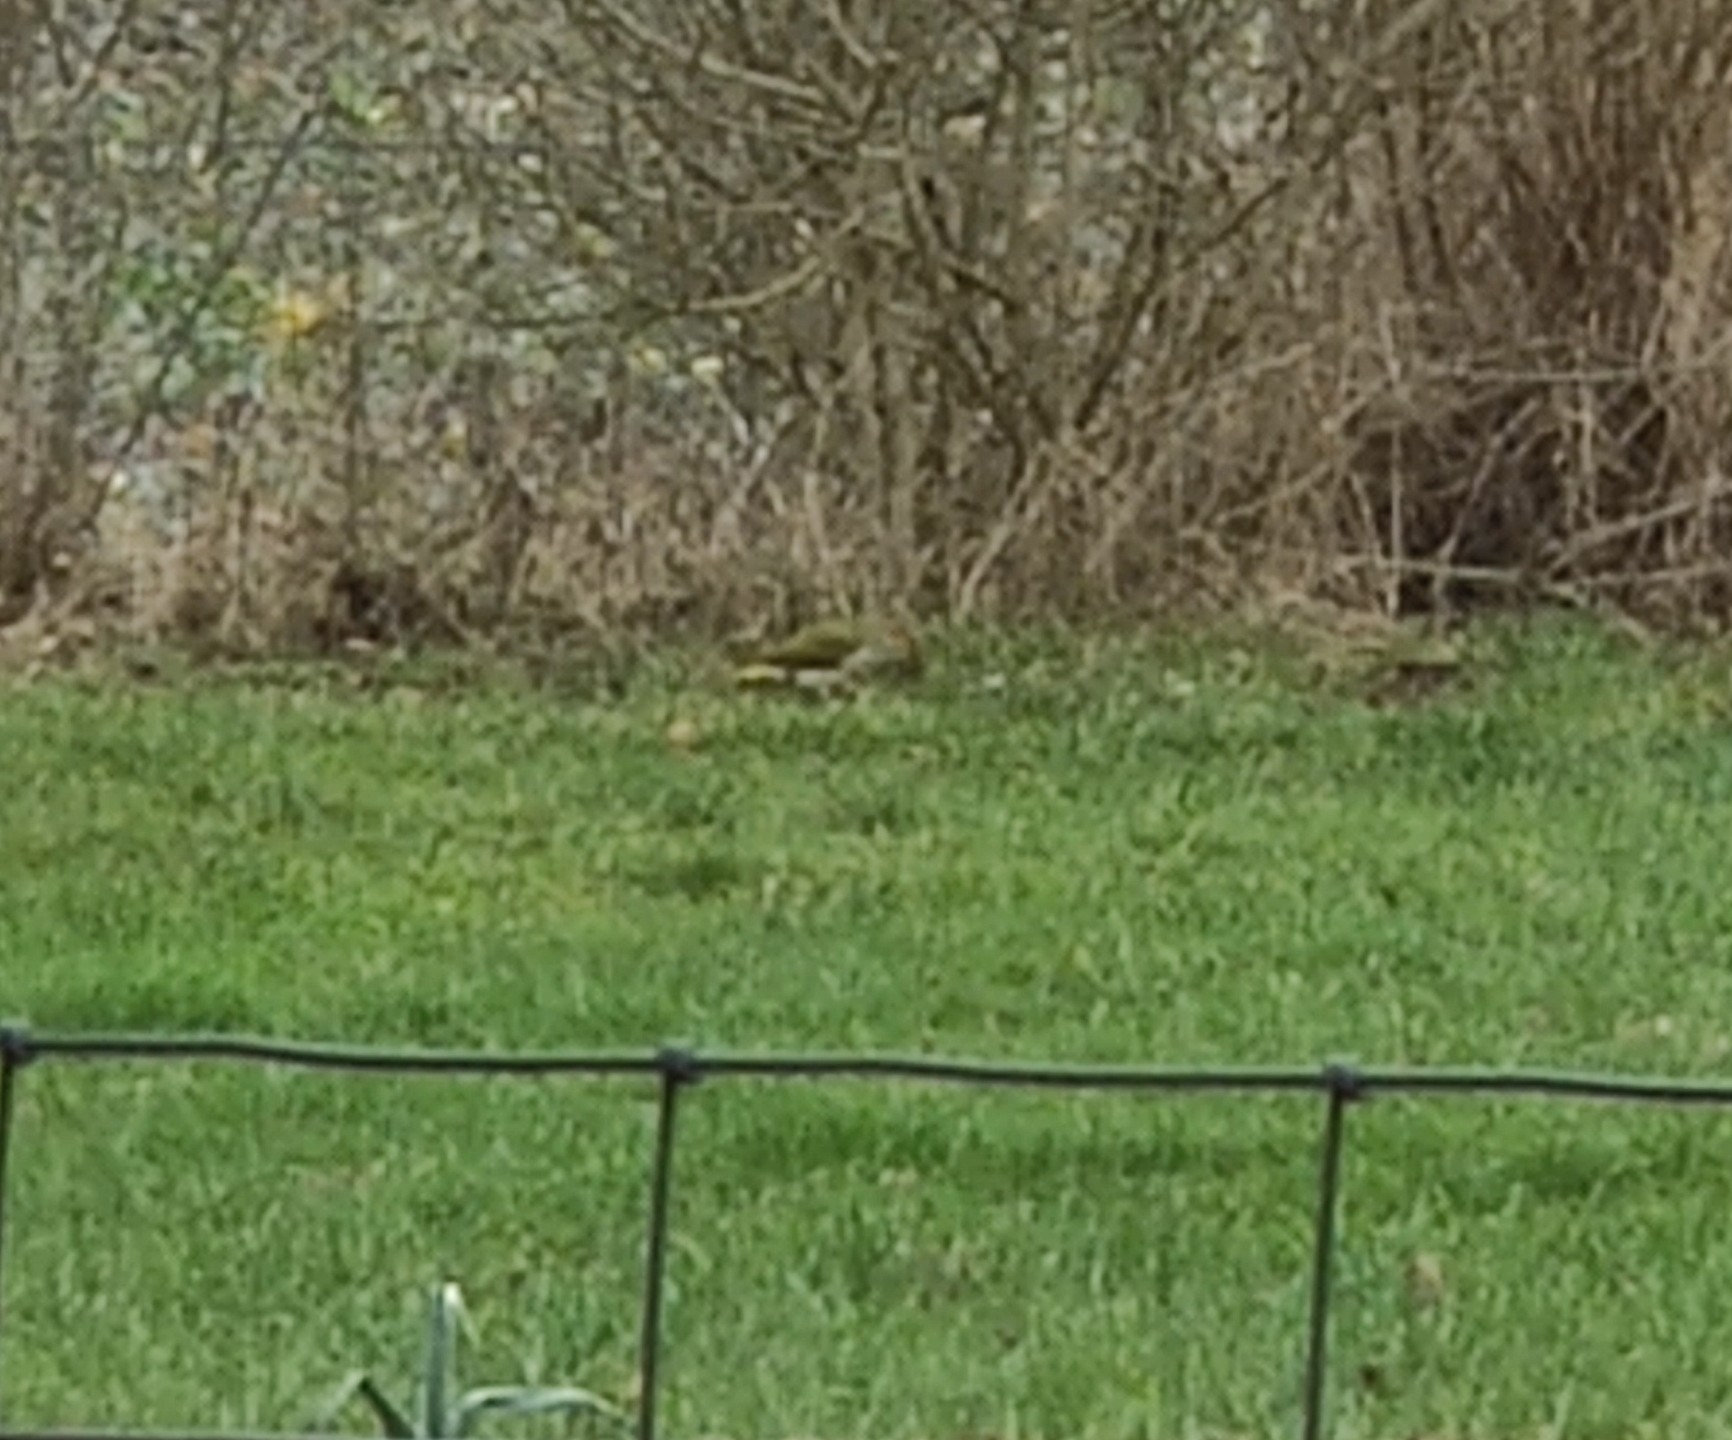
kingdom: Animalia
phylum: Chordata
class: Aves
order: Piciformes
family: Picidae
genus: Picus
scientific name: Picus viridis
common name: European green woodpecker
